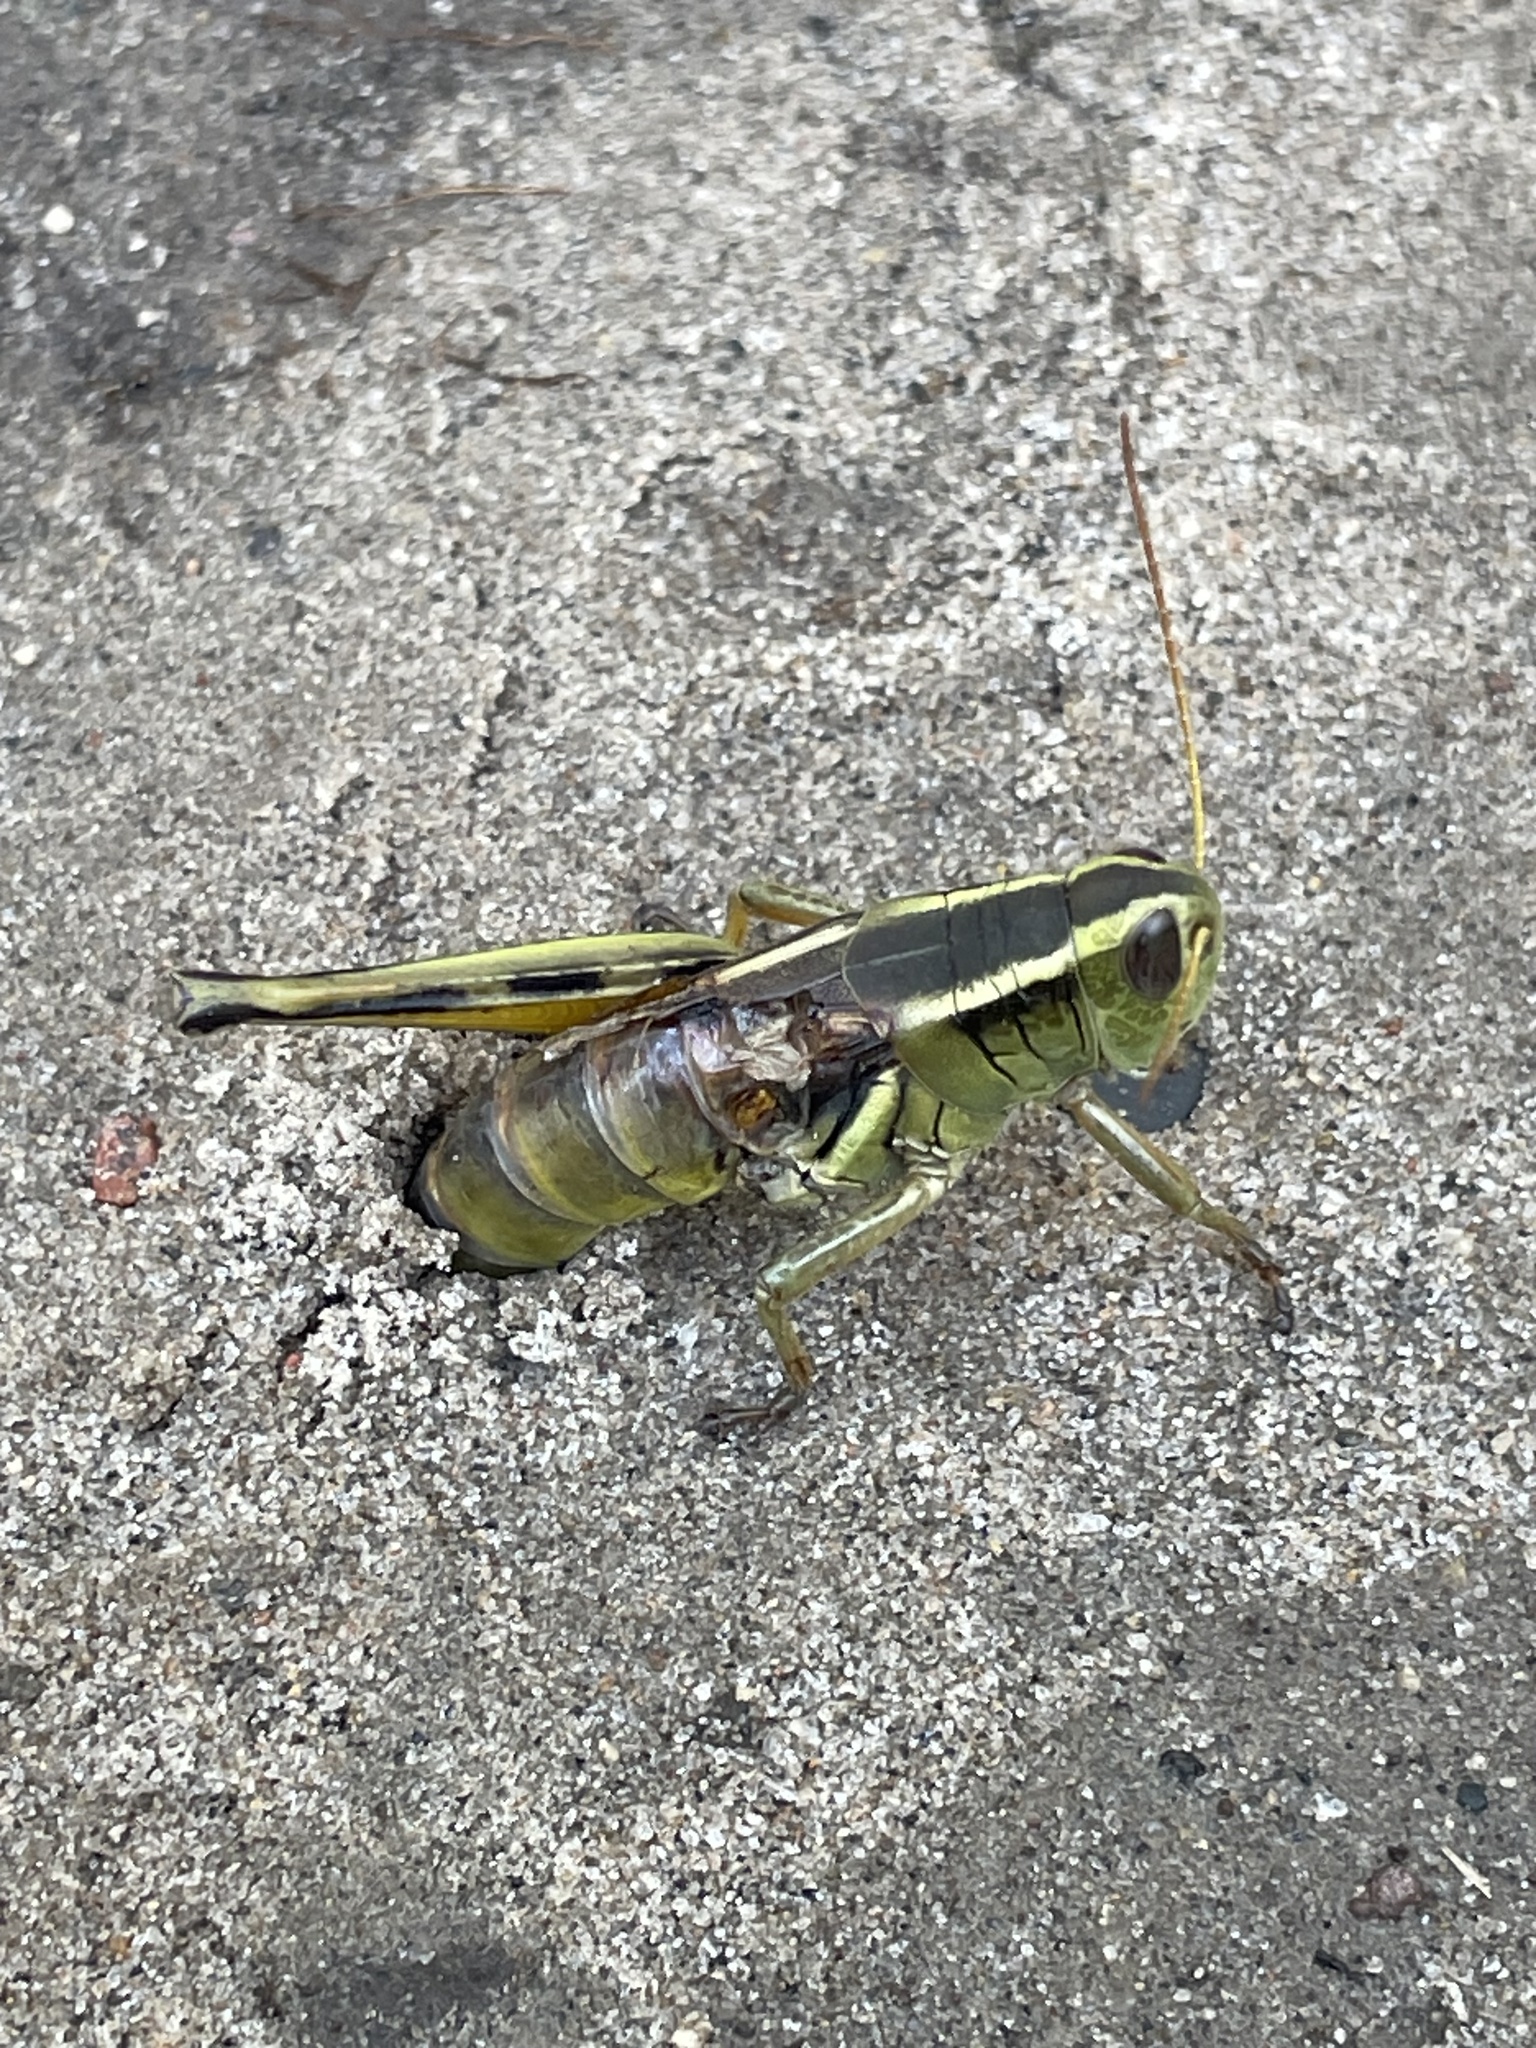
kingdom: Animalia
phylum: Arthropoda
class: Insecta
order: Orthoptera
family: Acrididae
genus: Melanoplus
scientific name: Melanoplus bivittatus
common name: Two-striped grasshopper
